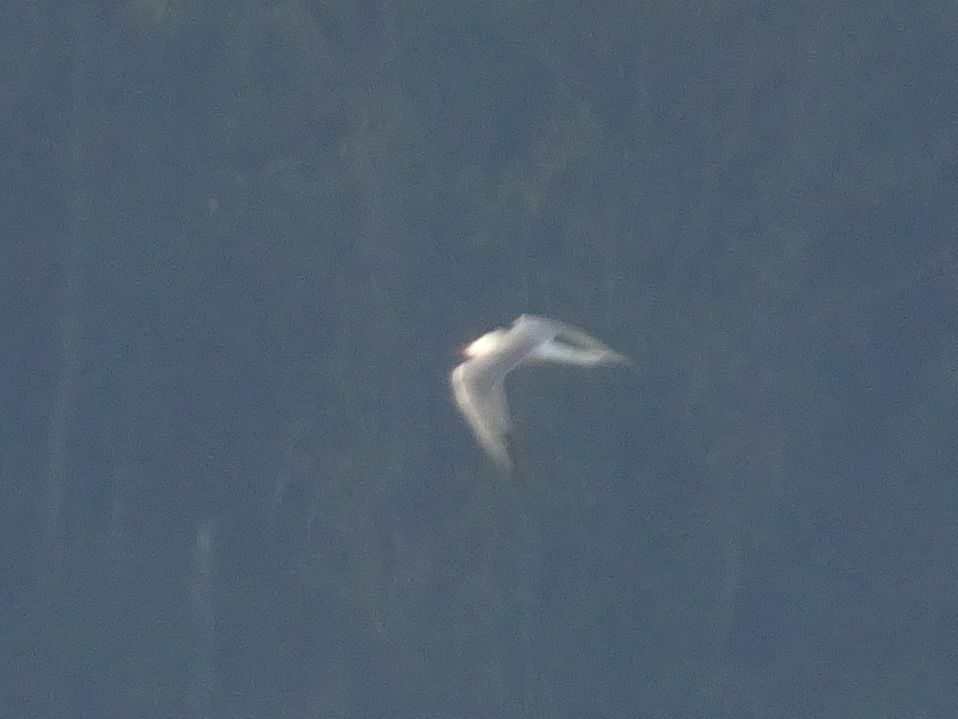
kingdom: Animalia
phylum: Chordata
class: Aves
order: Charadriiformes
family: Laridae
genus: Sterna
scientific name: Sterna hirundo
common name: Common tern
